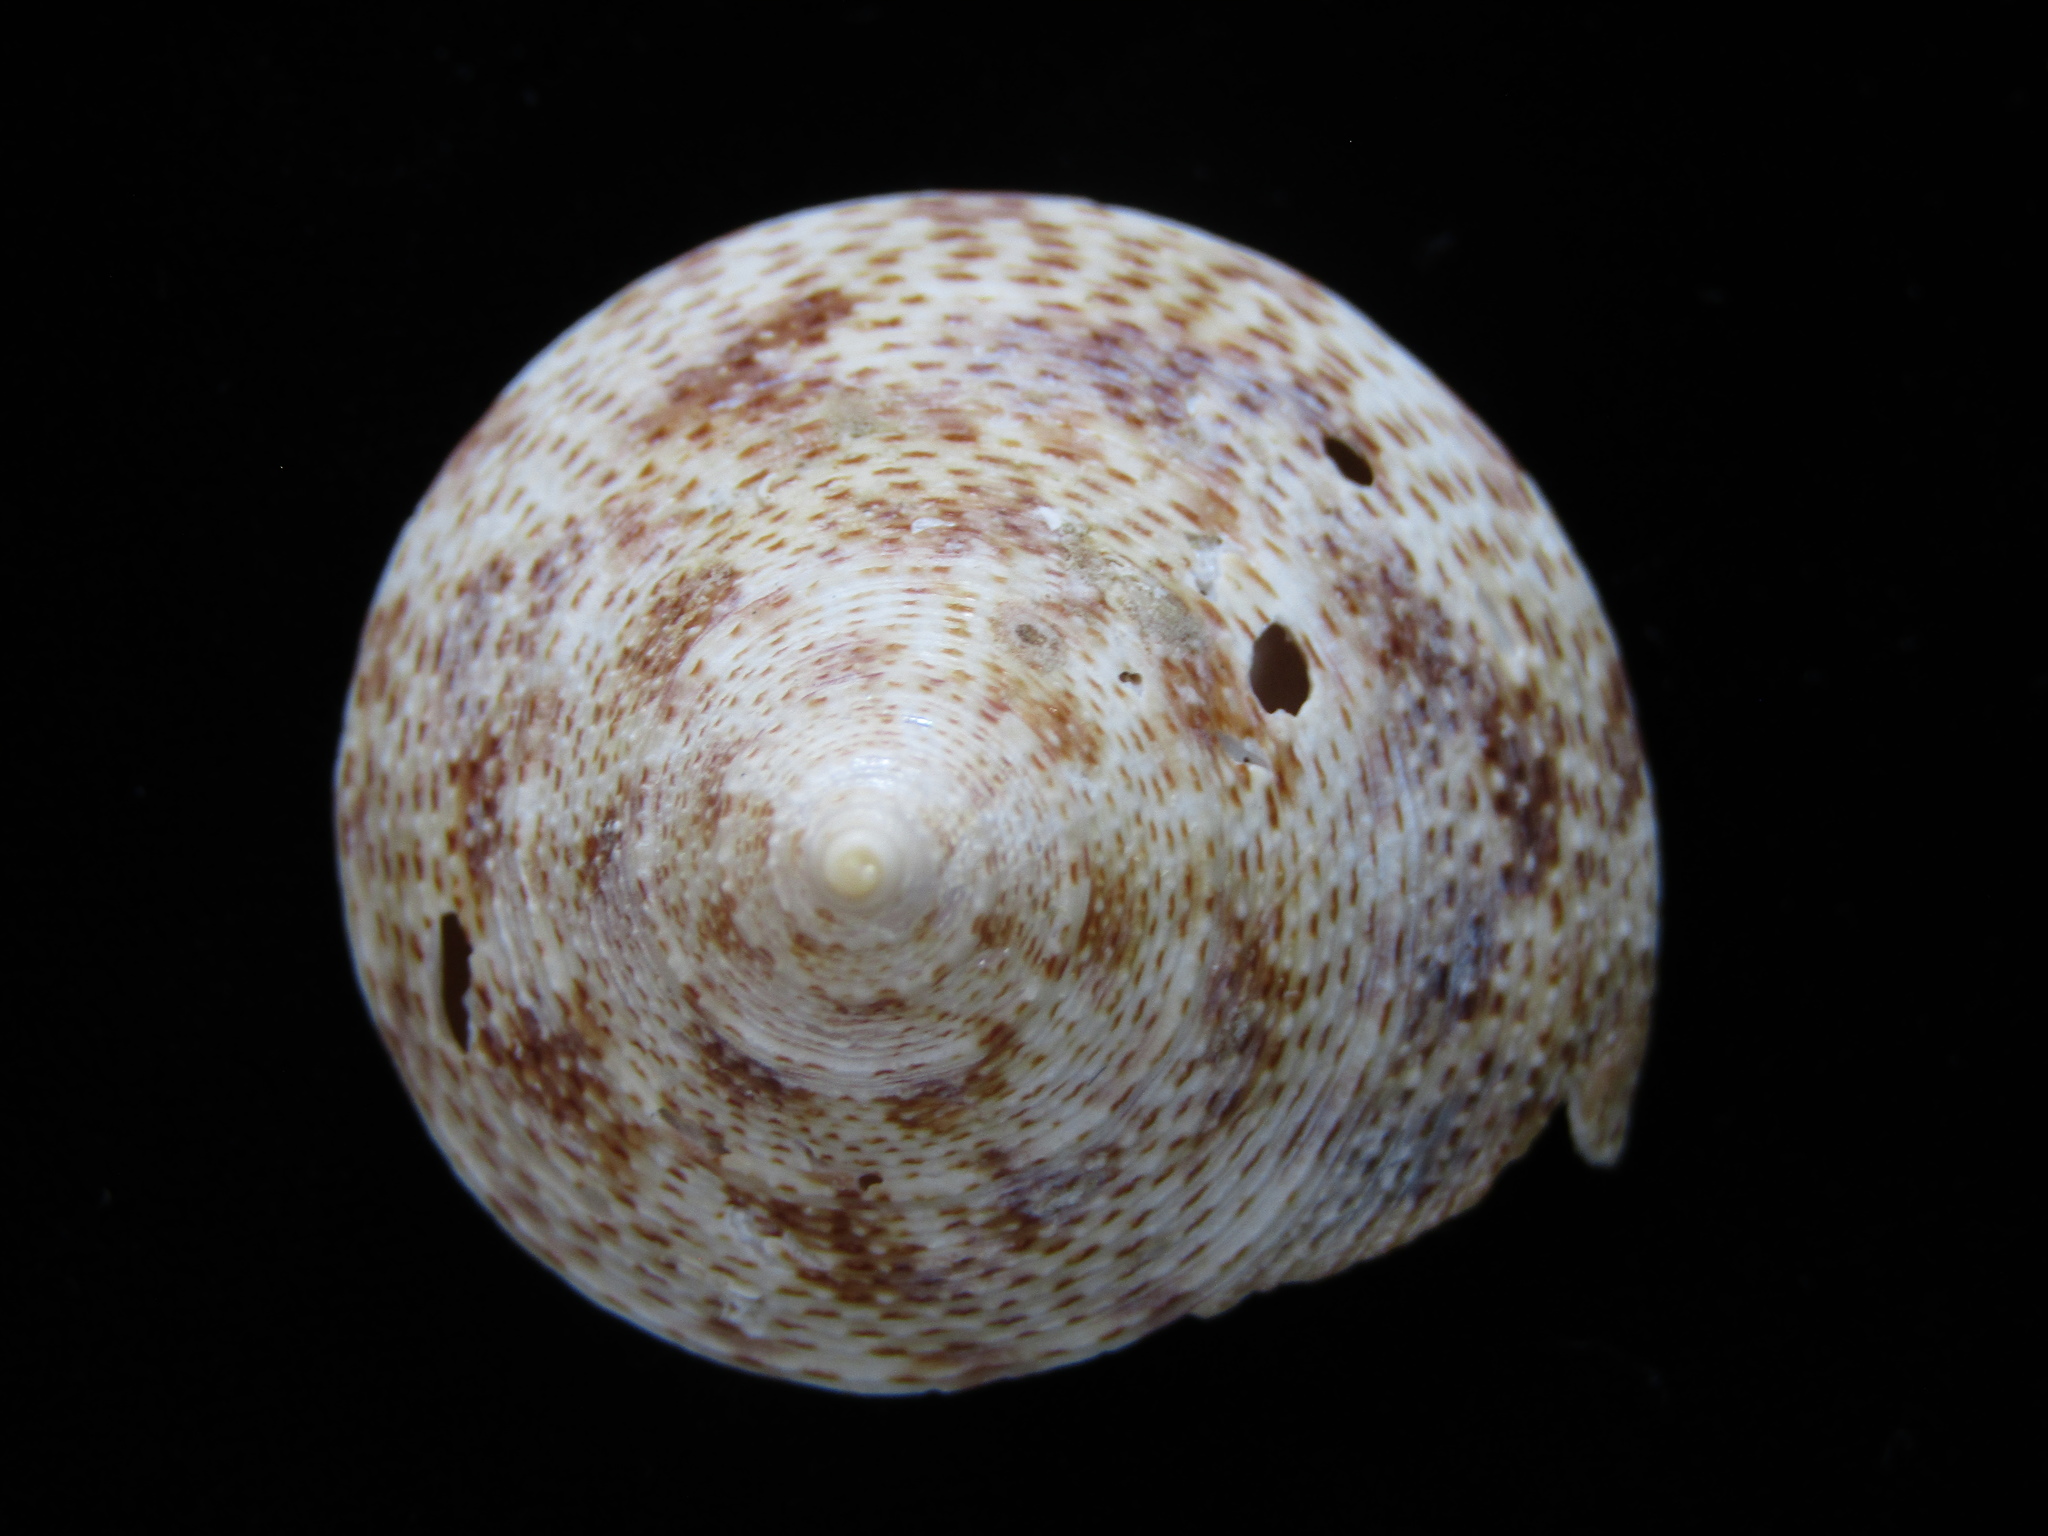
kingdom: Animalia
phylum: Mollusca
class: Gastropoda
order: Trochida
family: Calliostomatidae
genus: Maurea
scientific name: Maurea pellucida
